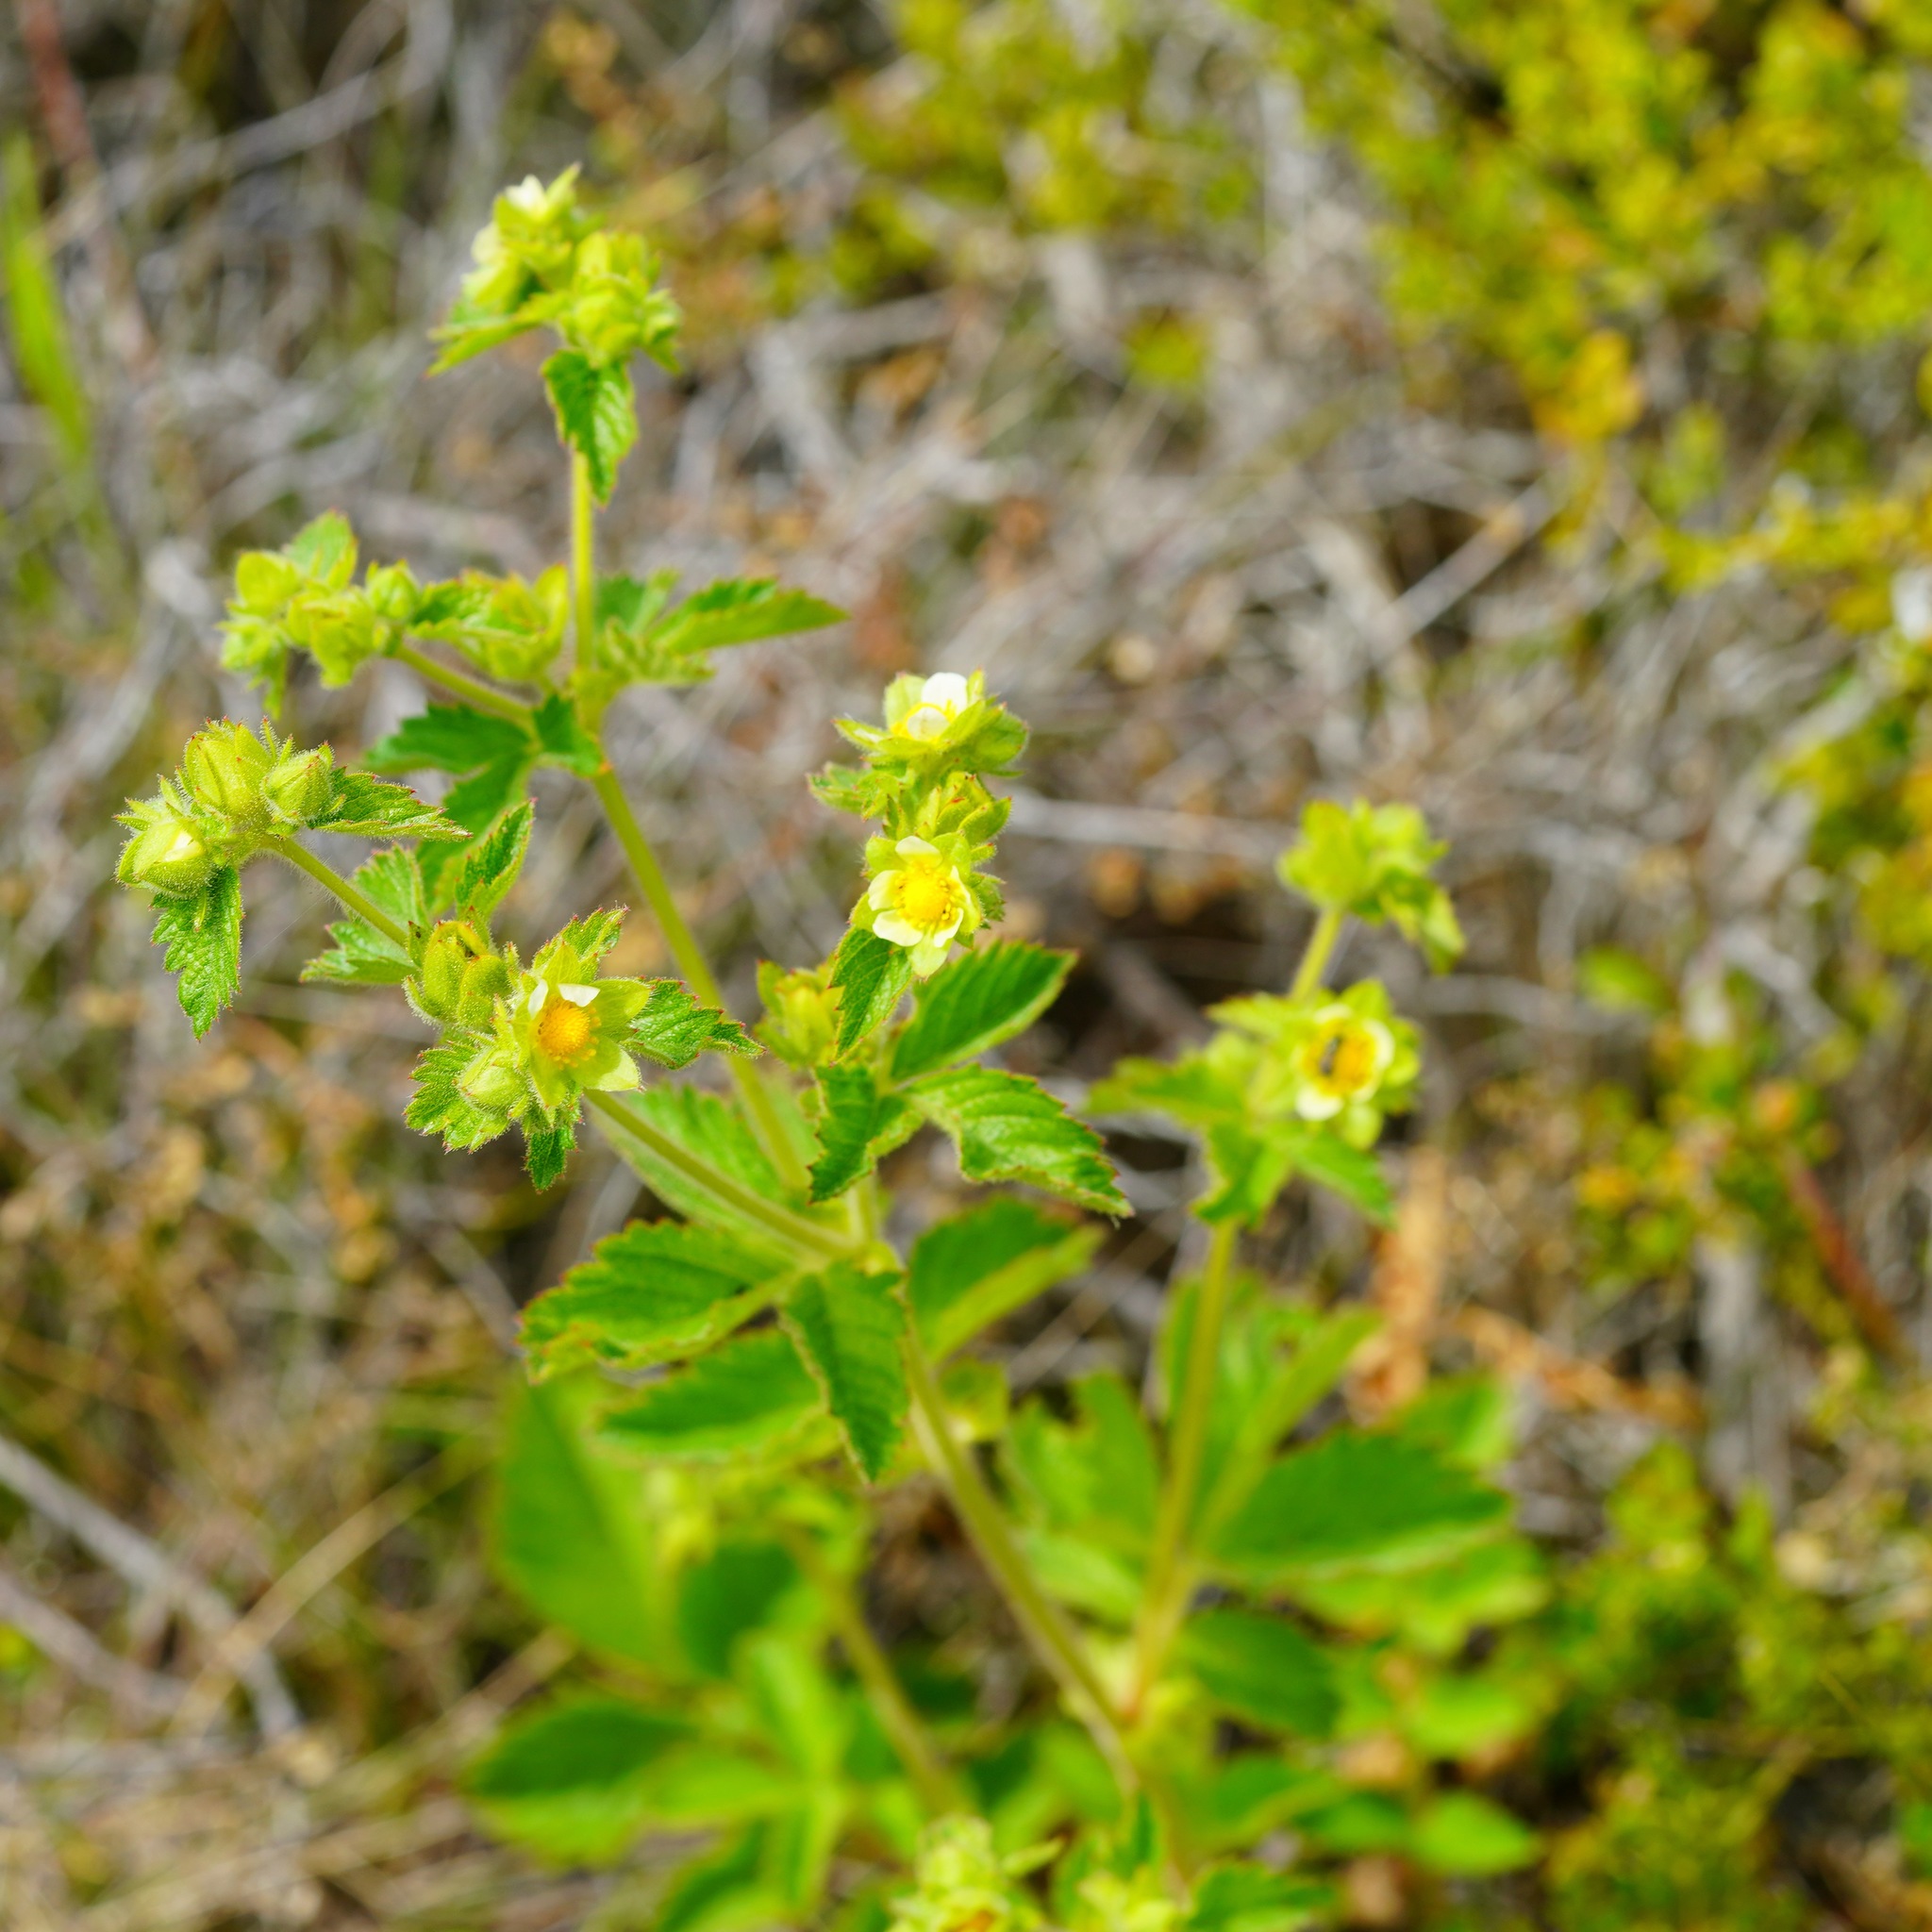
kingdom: Plantae
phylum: Tracheophyta
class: Magnoliopsida
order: Rosales
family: Rosaceae
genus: Drymocallis
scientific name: Drymocallis glandulosa
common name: Sticky cinquefoil
